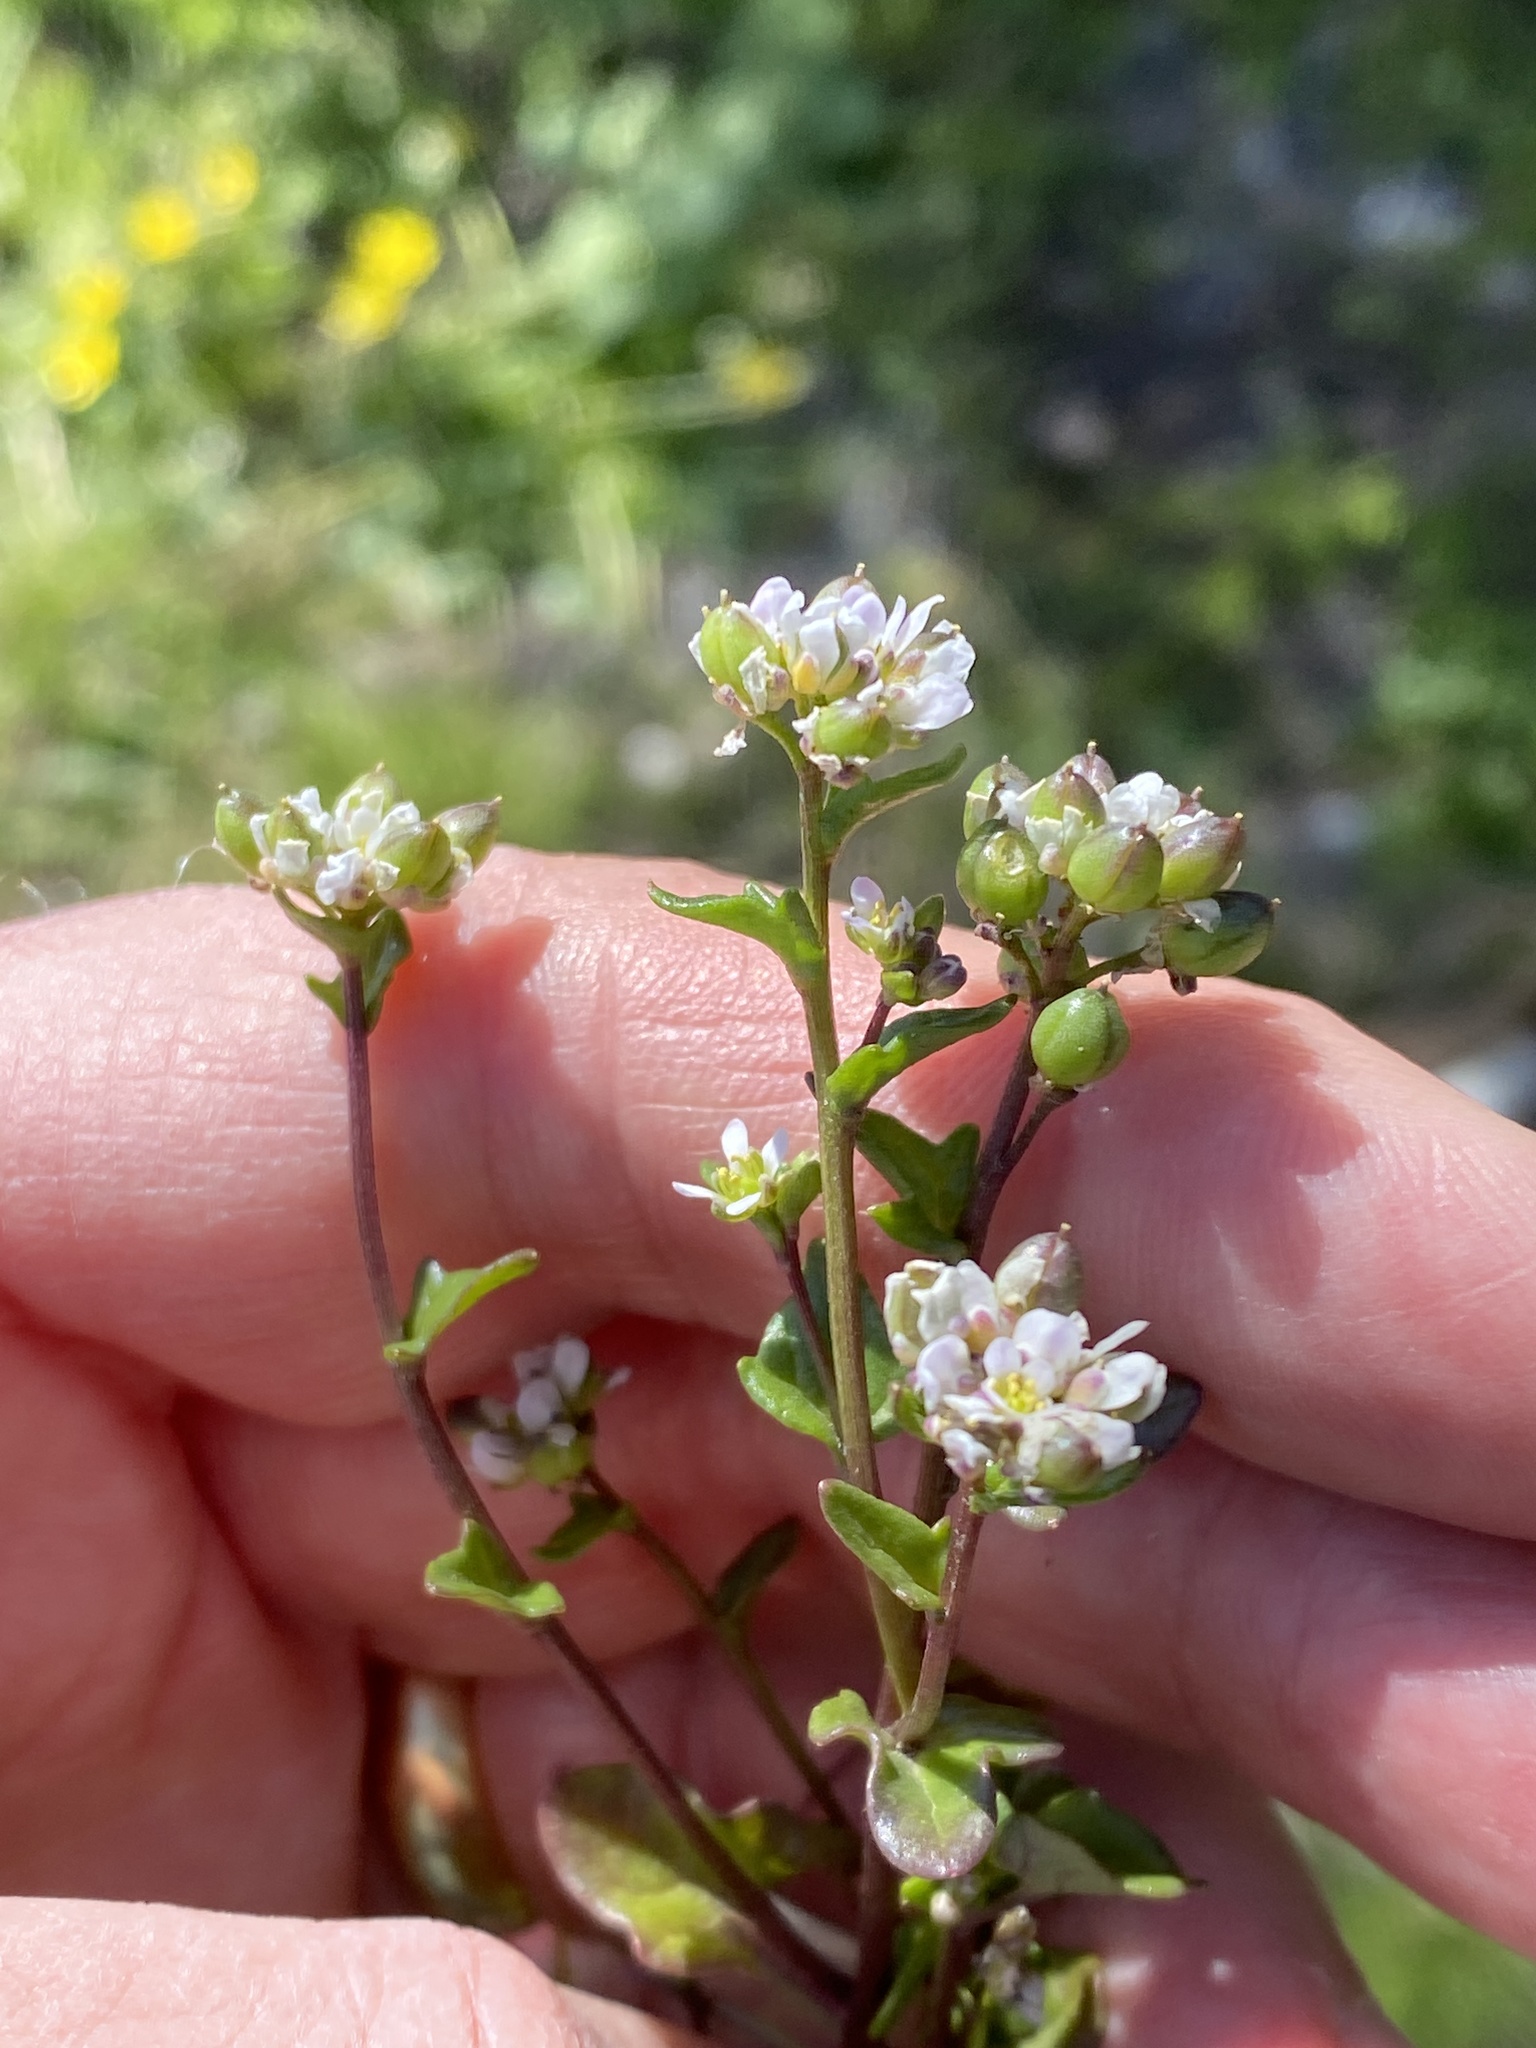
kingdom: Plantae
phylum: Tracheophyta
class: Magnoliopsida
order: Brassicales
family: Brassicaceae
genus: Cochlearia
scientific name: Cochlearia officinalis
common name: Scurvy-grass
